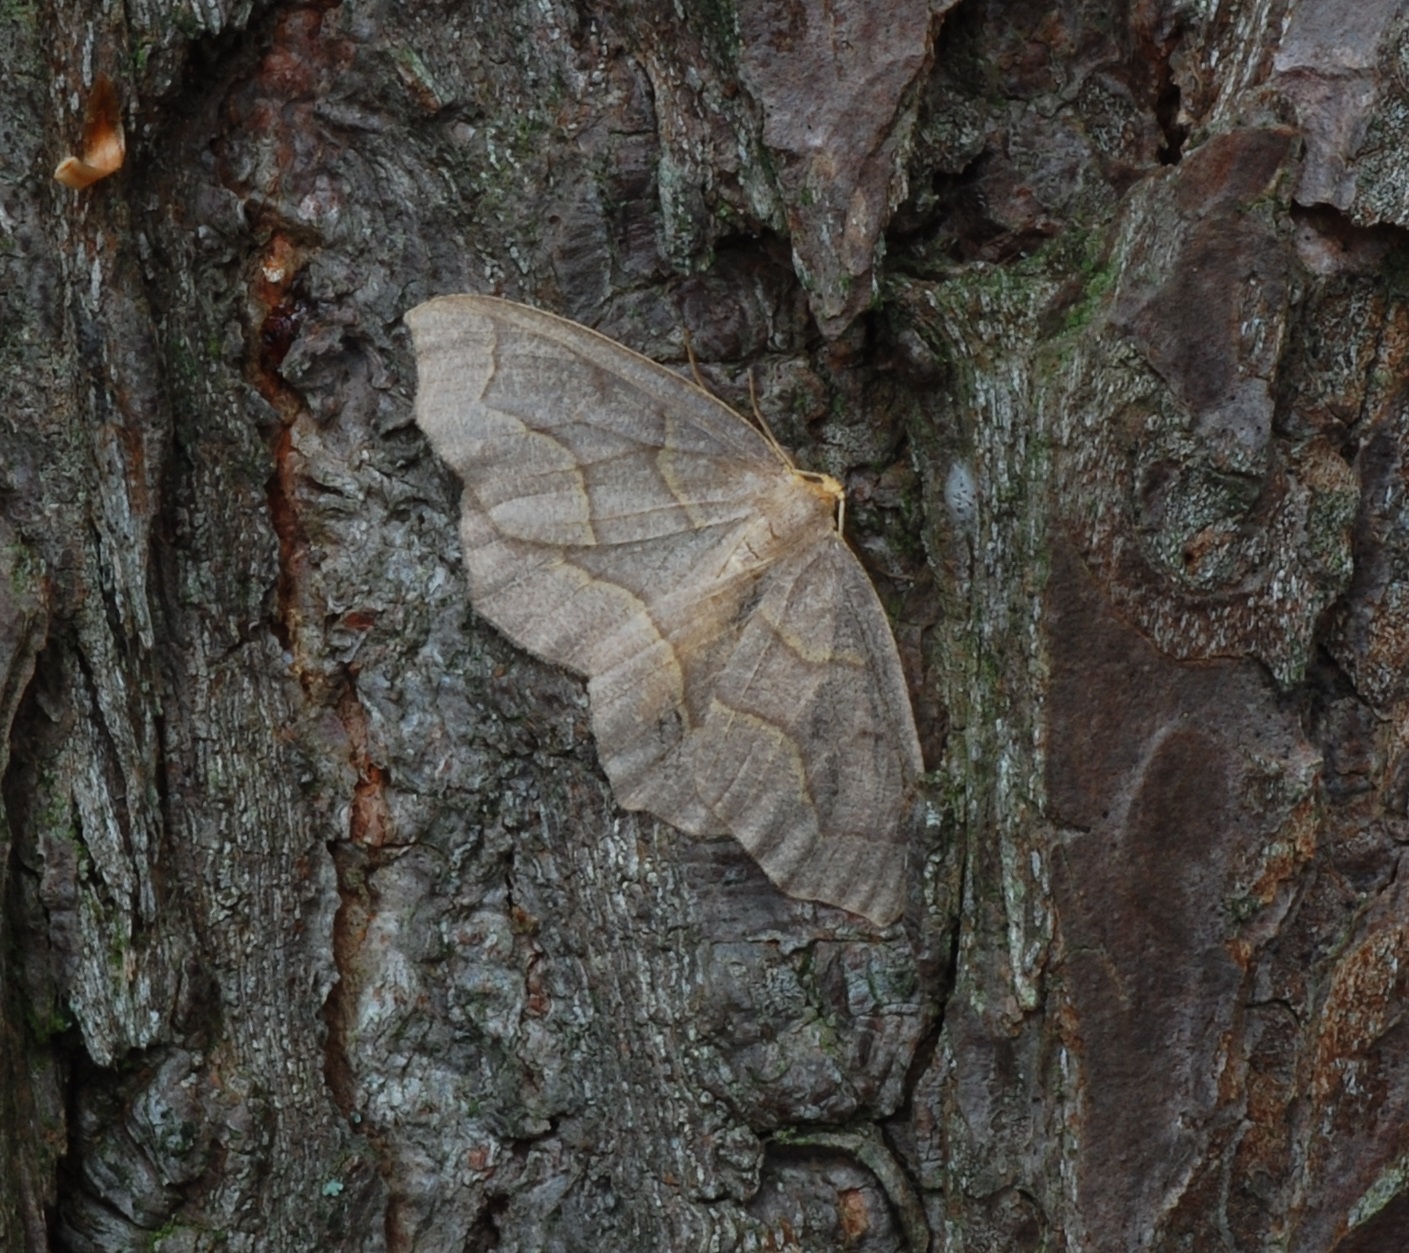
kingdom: Animalia
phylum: Arthropoda
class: Insecta
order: Lepidoptera
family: Geometridae
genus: Lambdina
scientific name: Lambdina fiscellaria
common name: Hemlock looper
